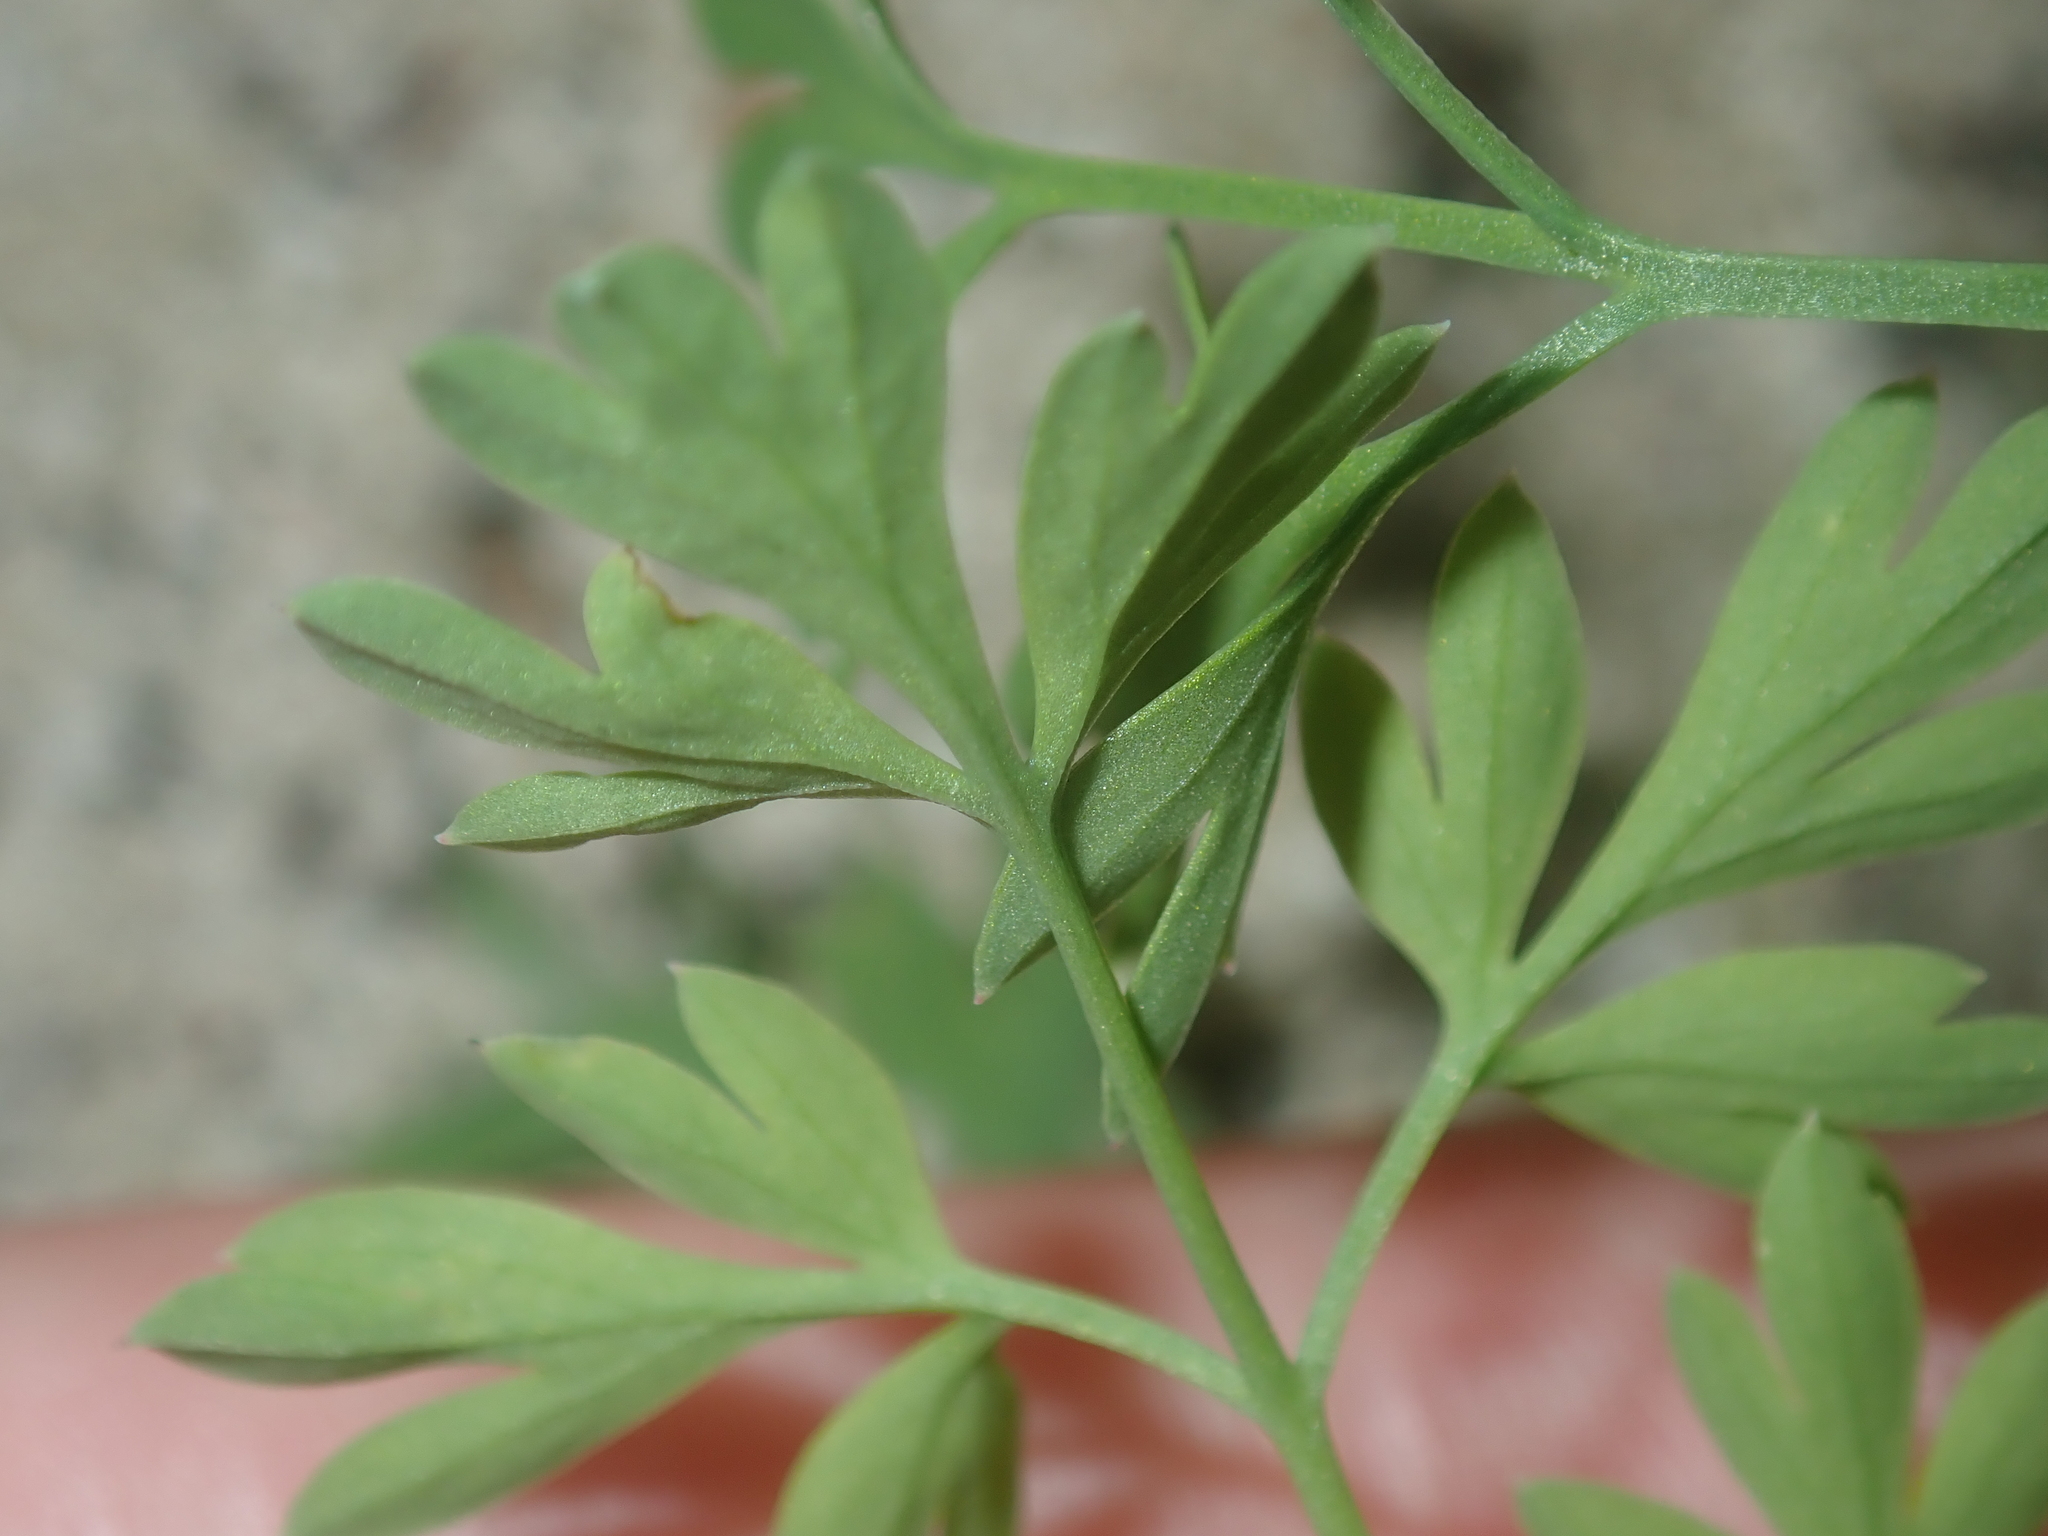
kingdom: Plantae
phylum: Tracheophyta
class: Magnoliopsida
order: Ranunculales
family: Papaveraceae
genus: Fumaria
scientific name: Fumaria capreolata
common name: White ramping-fumitory
